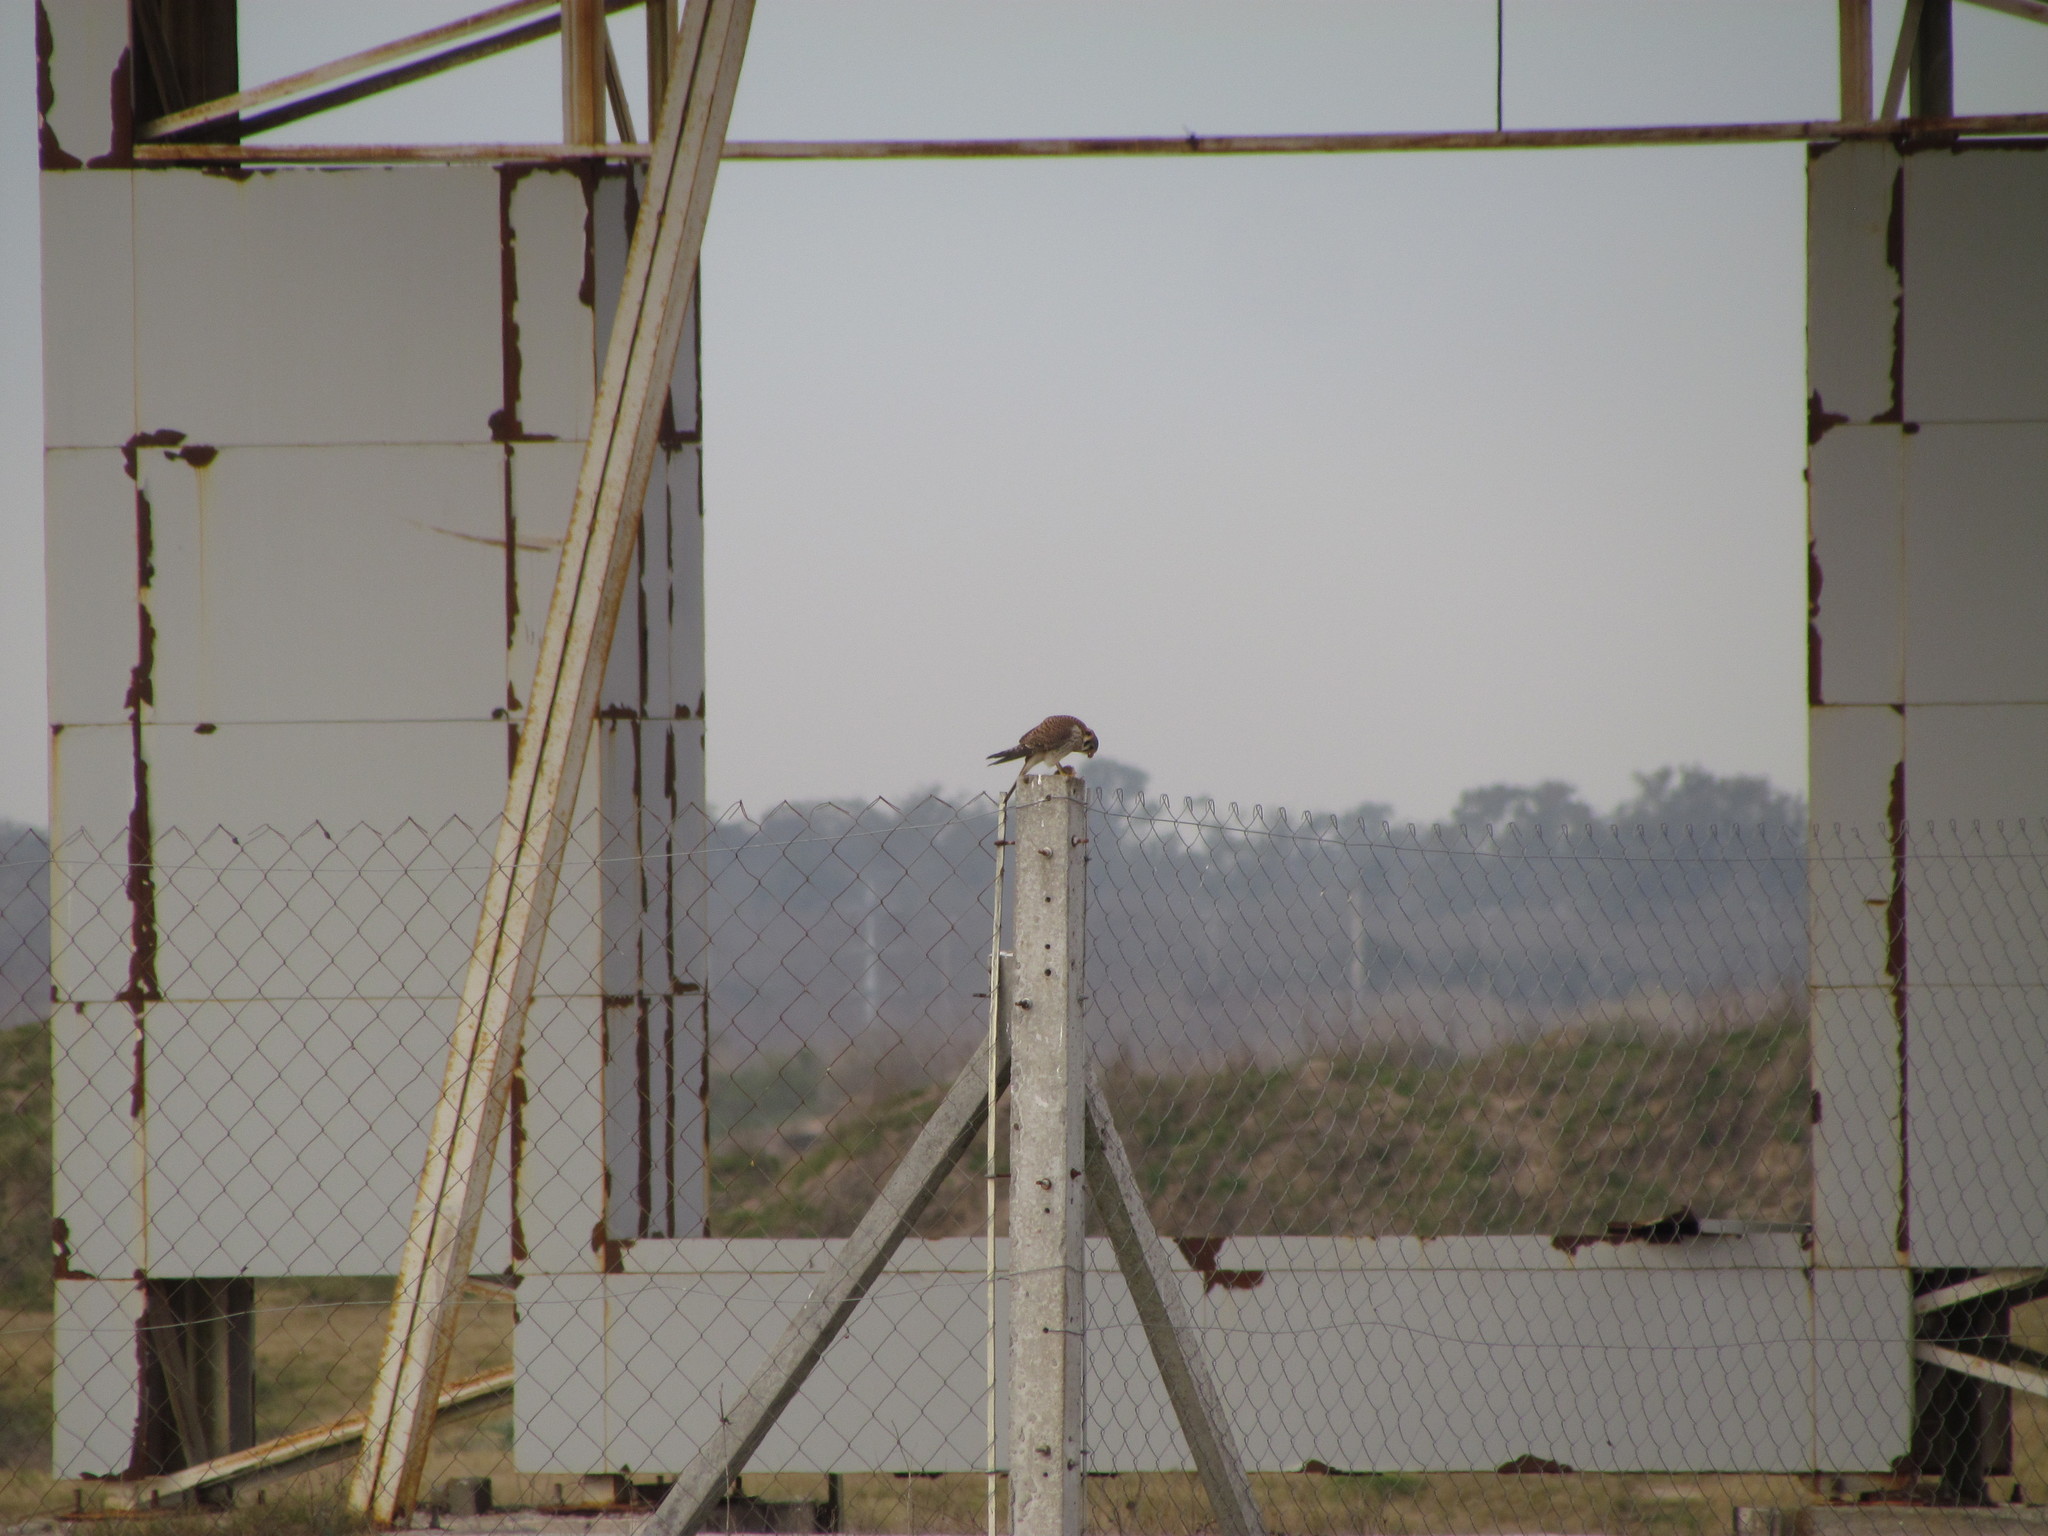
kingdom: Animalia
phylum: Chordata
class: Aves
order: Falconiformes
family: Falconidae
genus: Falco
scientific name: Falco sparverius
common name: American kestrel
